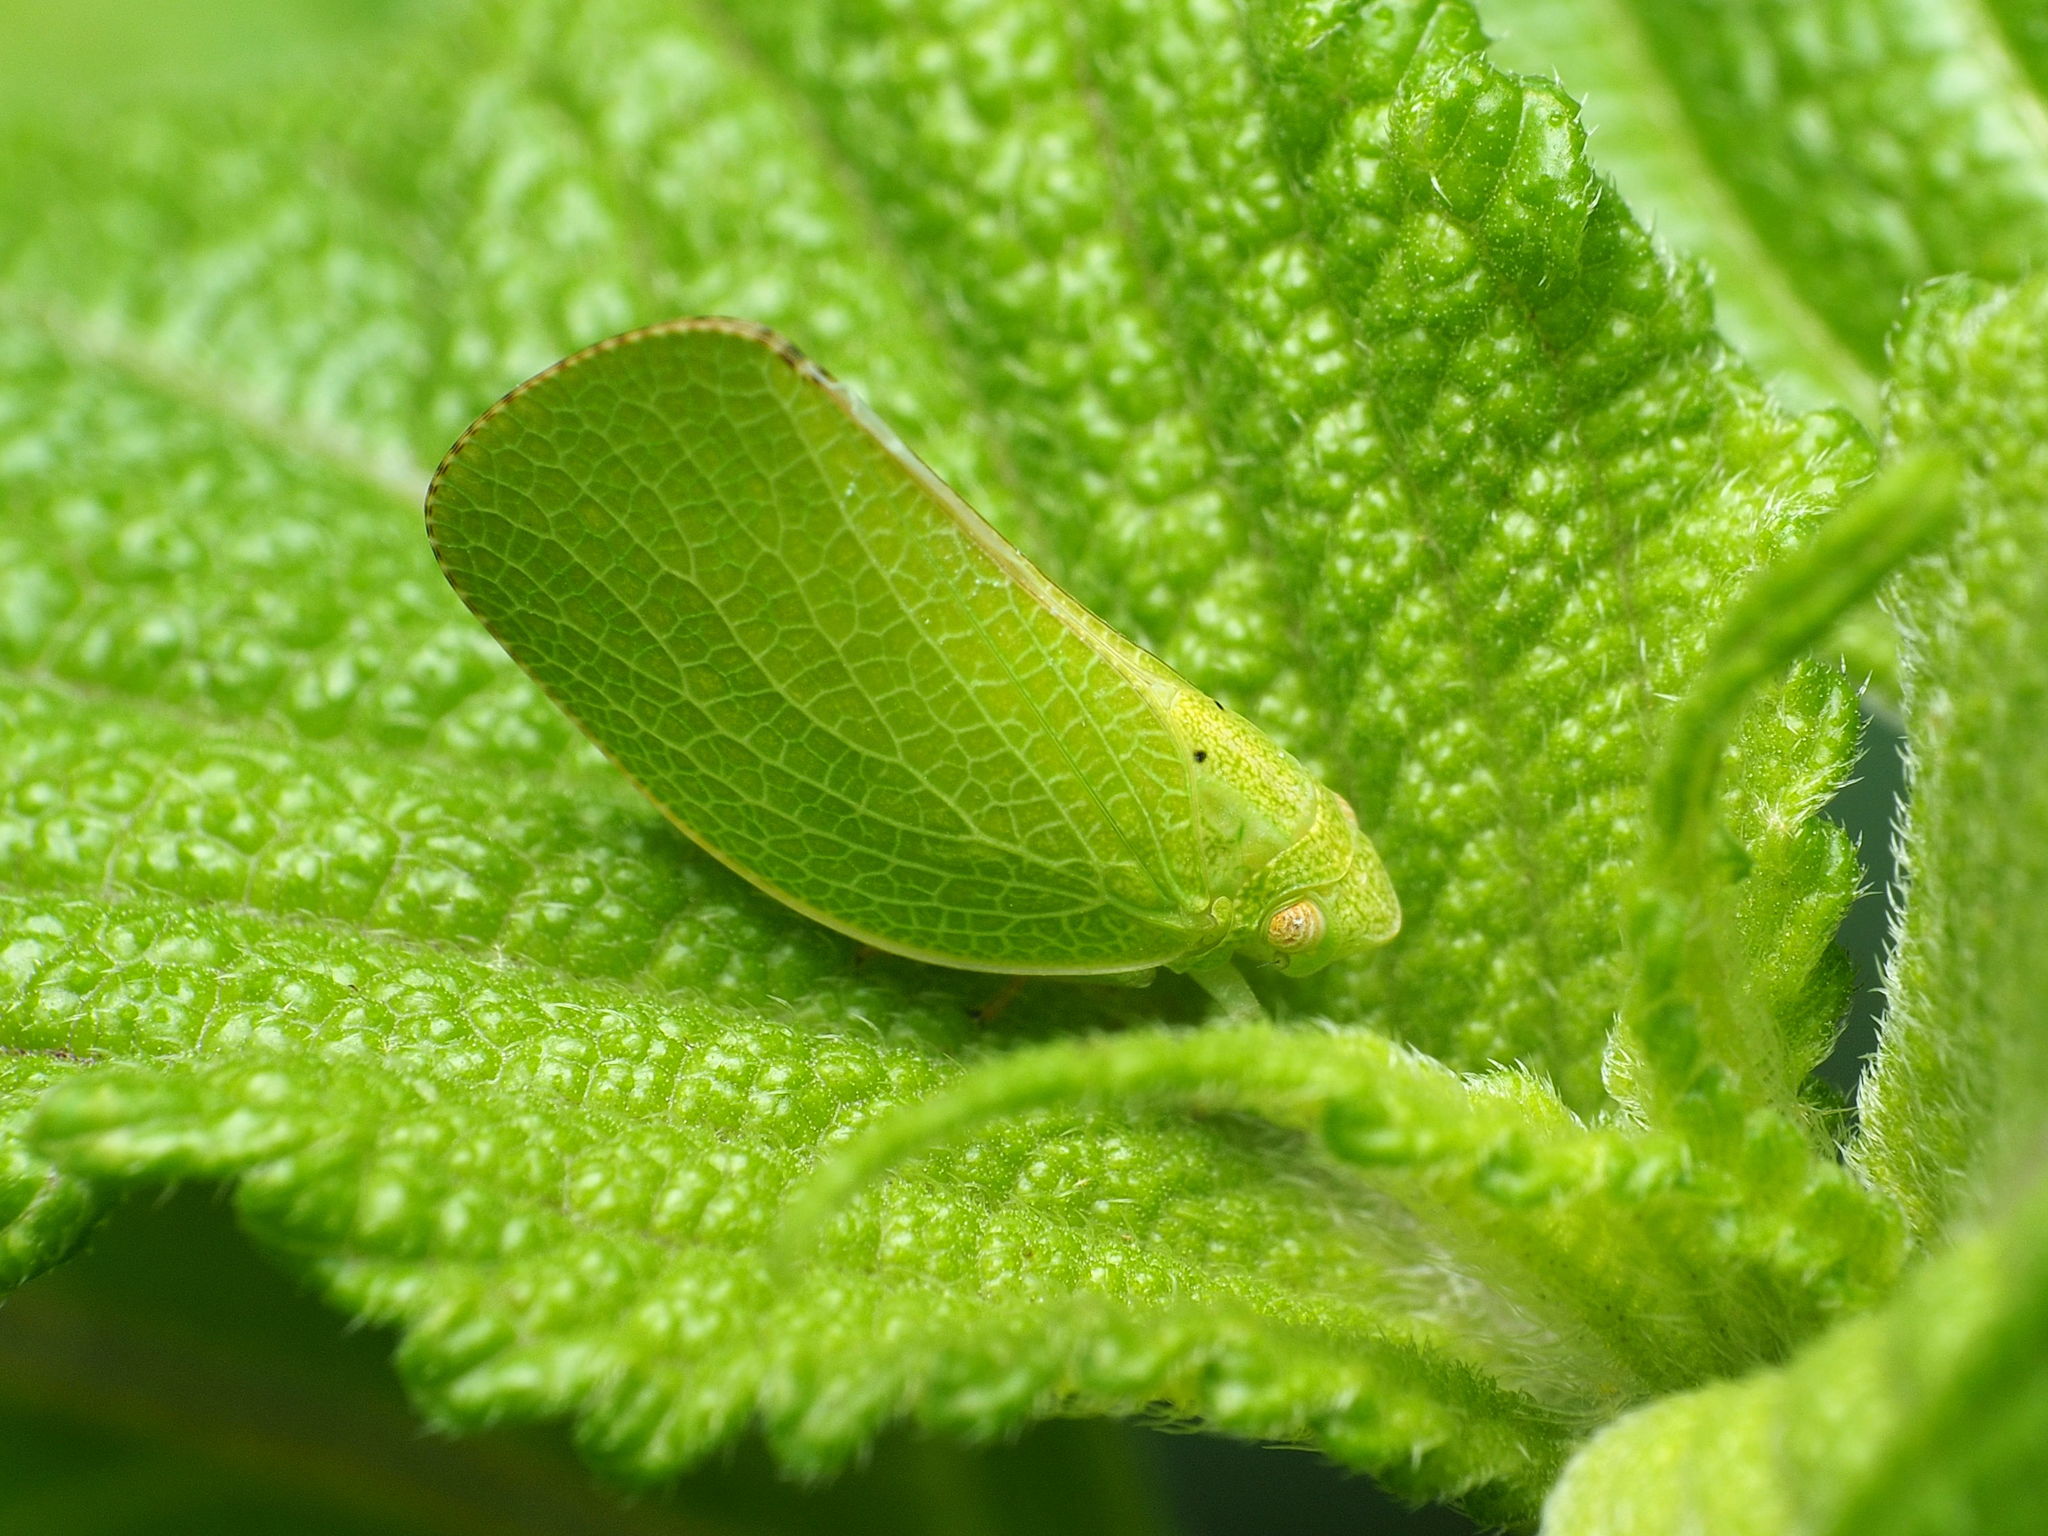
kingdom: Animalia
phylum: Arthropoda
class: Insecta
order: Hemiptera
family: Acanaloniidae
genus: Acanalonia
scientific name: Acanalonia conica
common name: Green cone-headed planthopper
